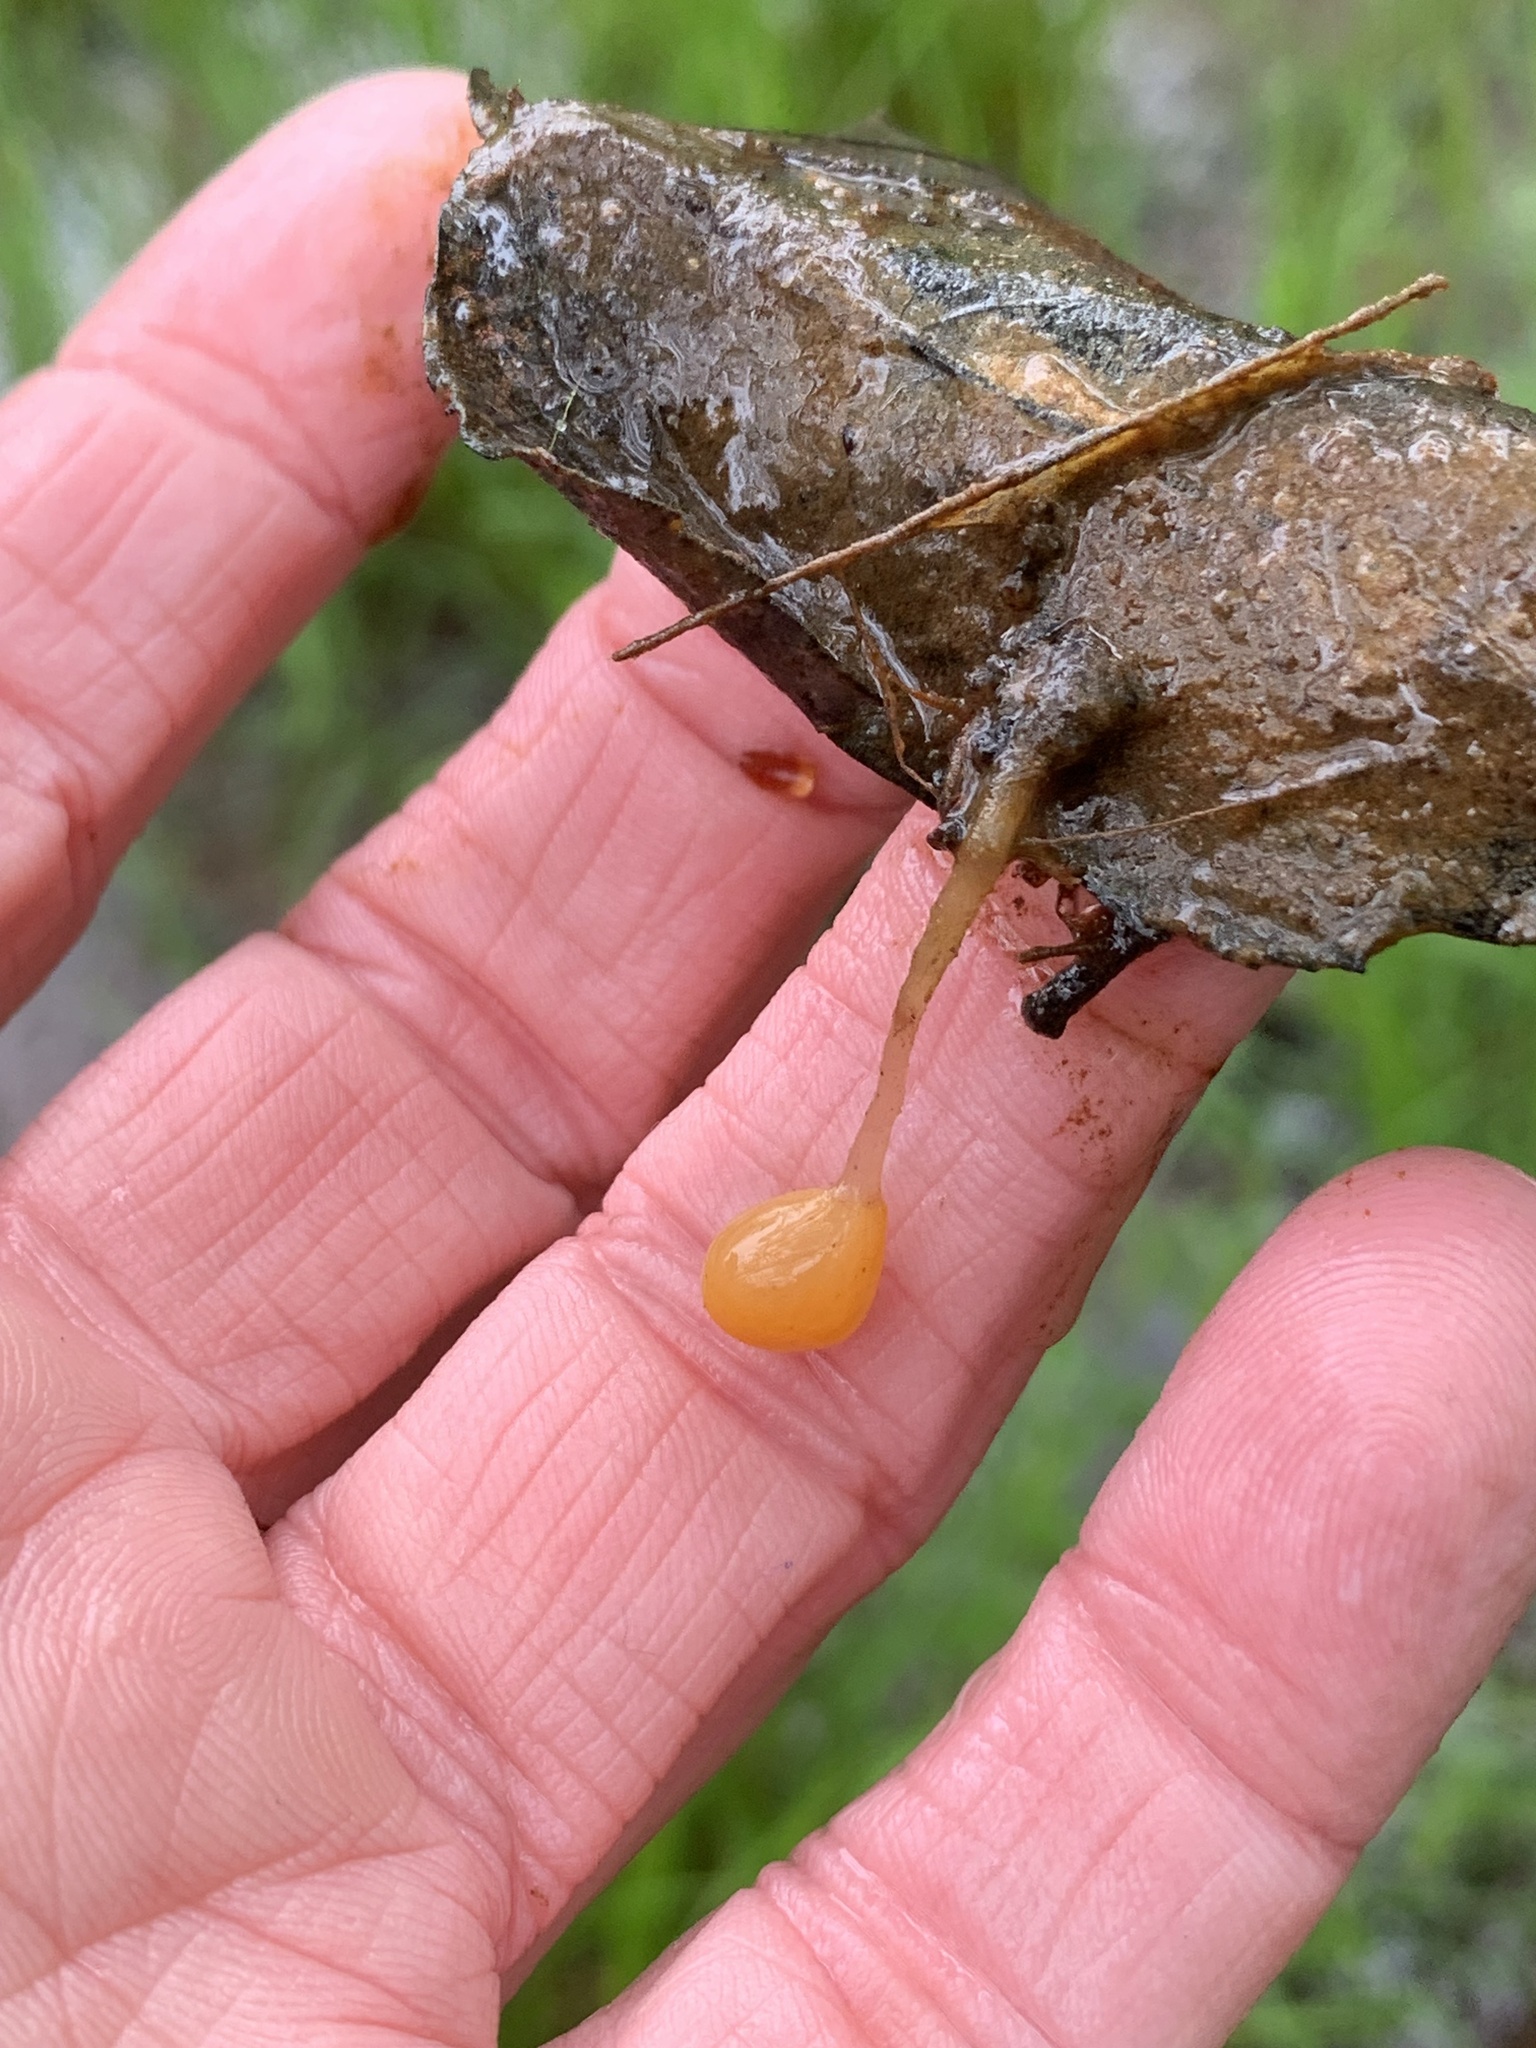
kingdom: Fungi
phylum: Ascomycota
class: Leotiomycetes
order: Helotiales
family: Sclerotiniaceae
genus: Mitrula
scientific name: Mitrula elegans
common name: Swamp beacon
